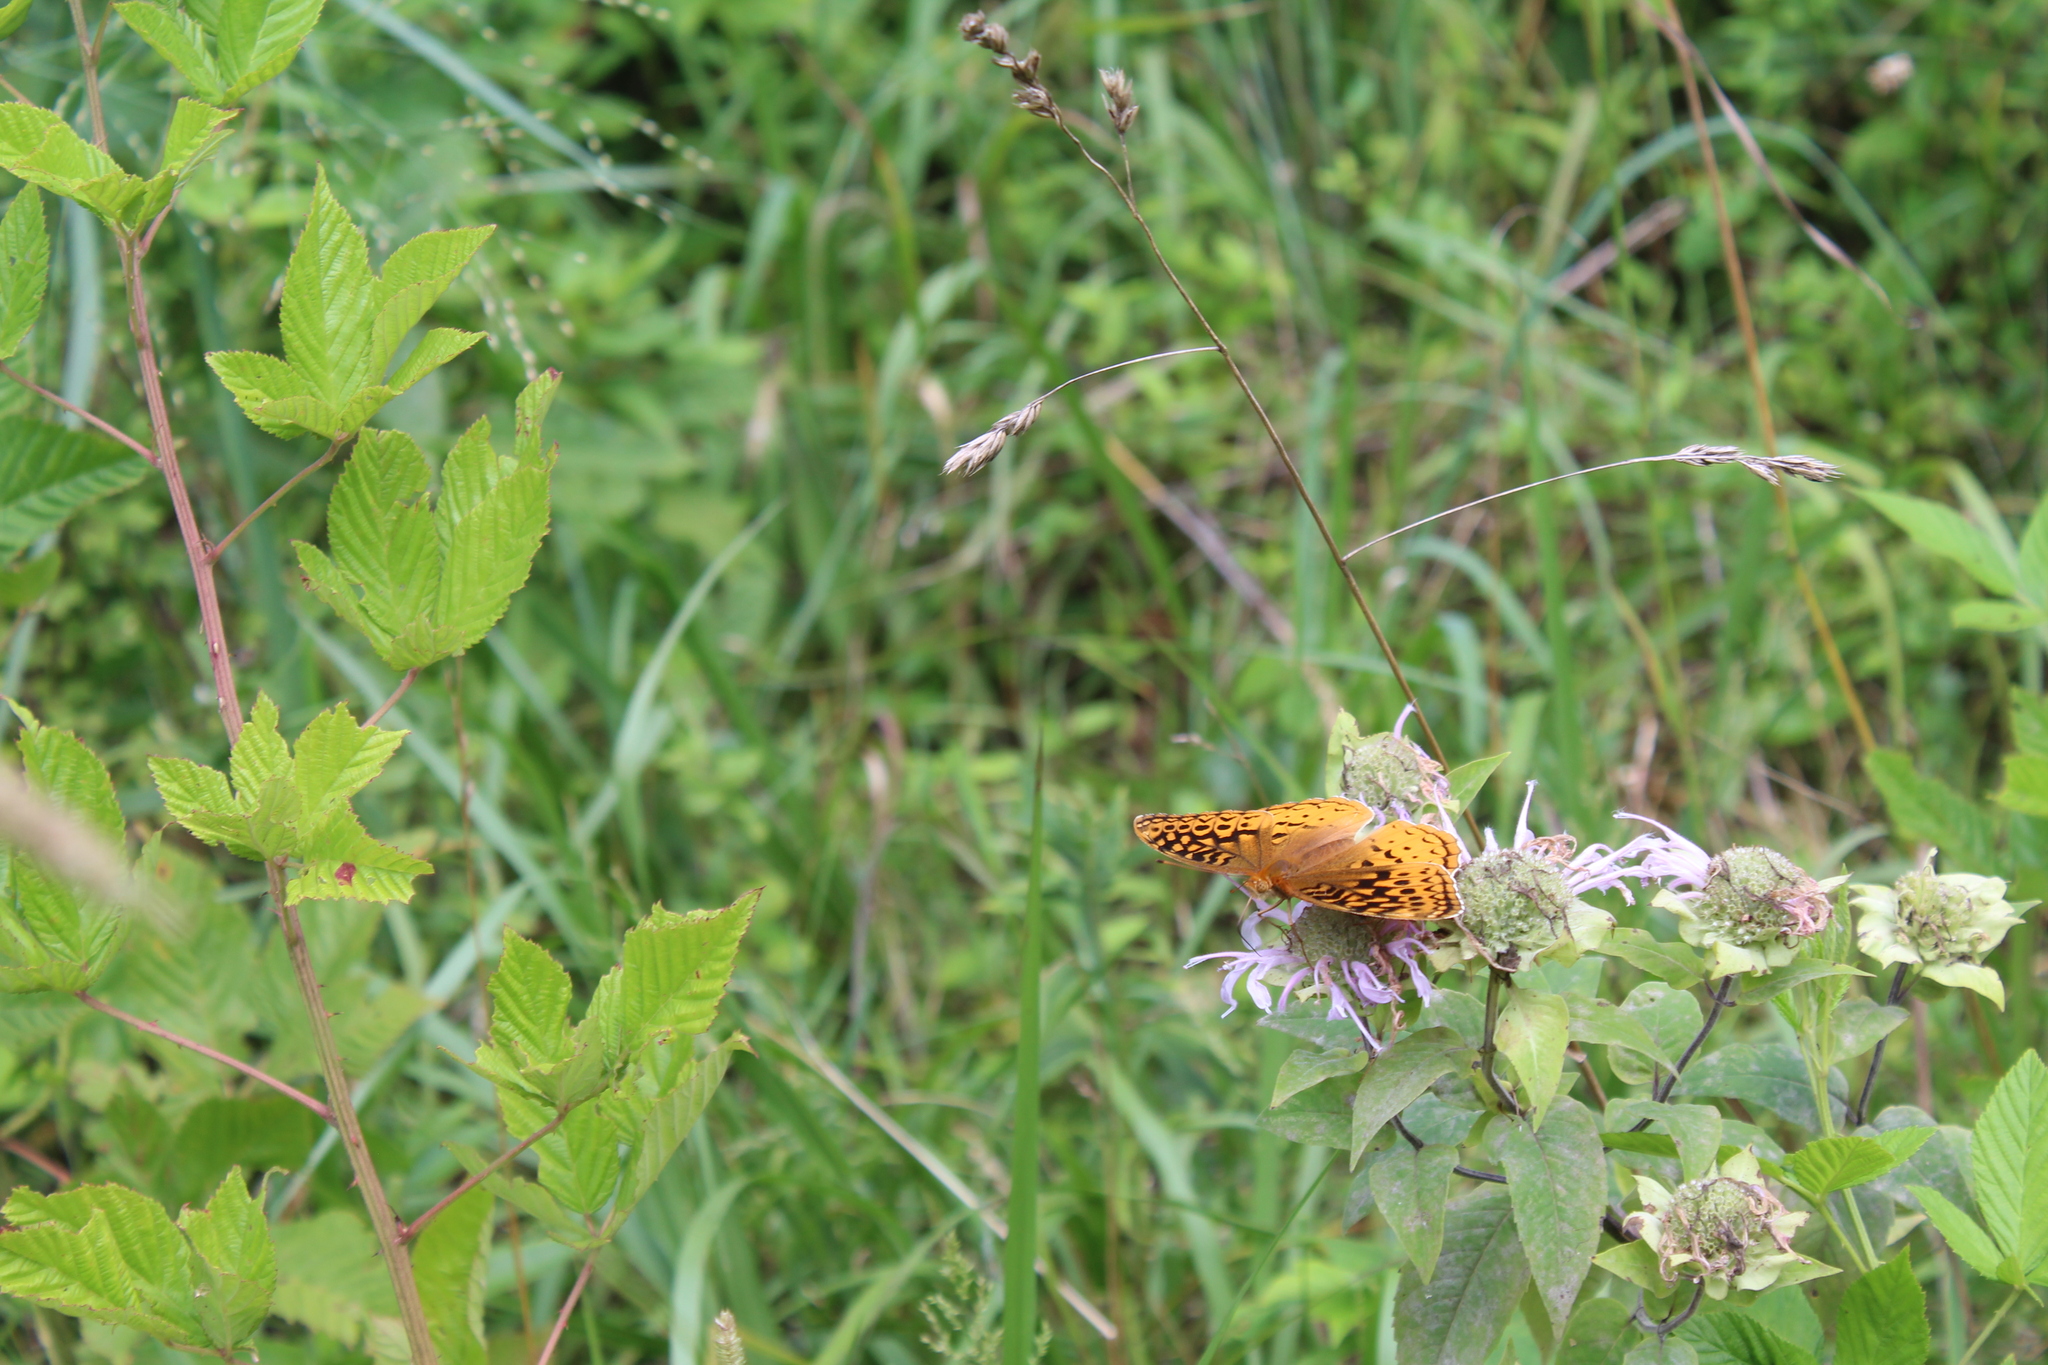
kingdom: Animalia
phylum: Arthropoda
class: Insecta
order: Lepidoptera
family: Nymphalidae
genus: Speyeria
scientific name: Speyeria cybele
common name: Great spangled fritillary
